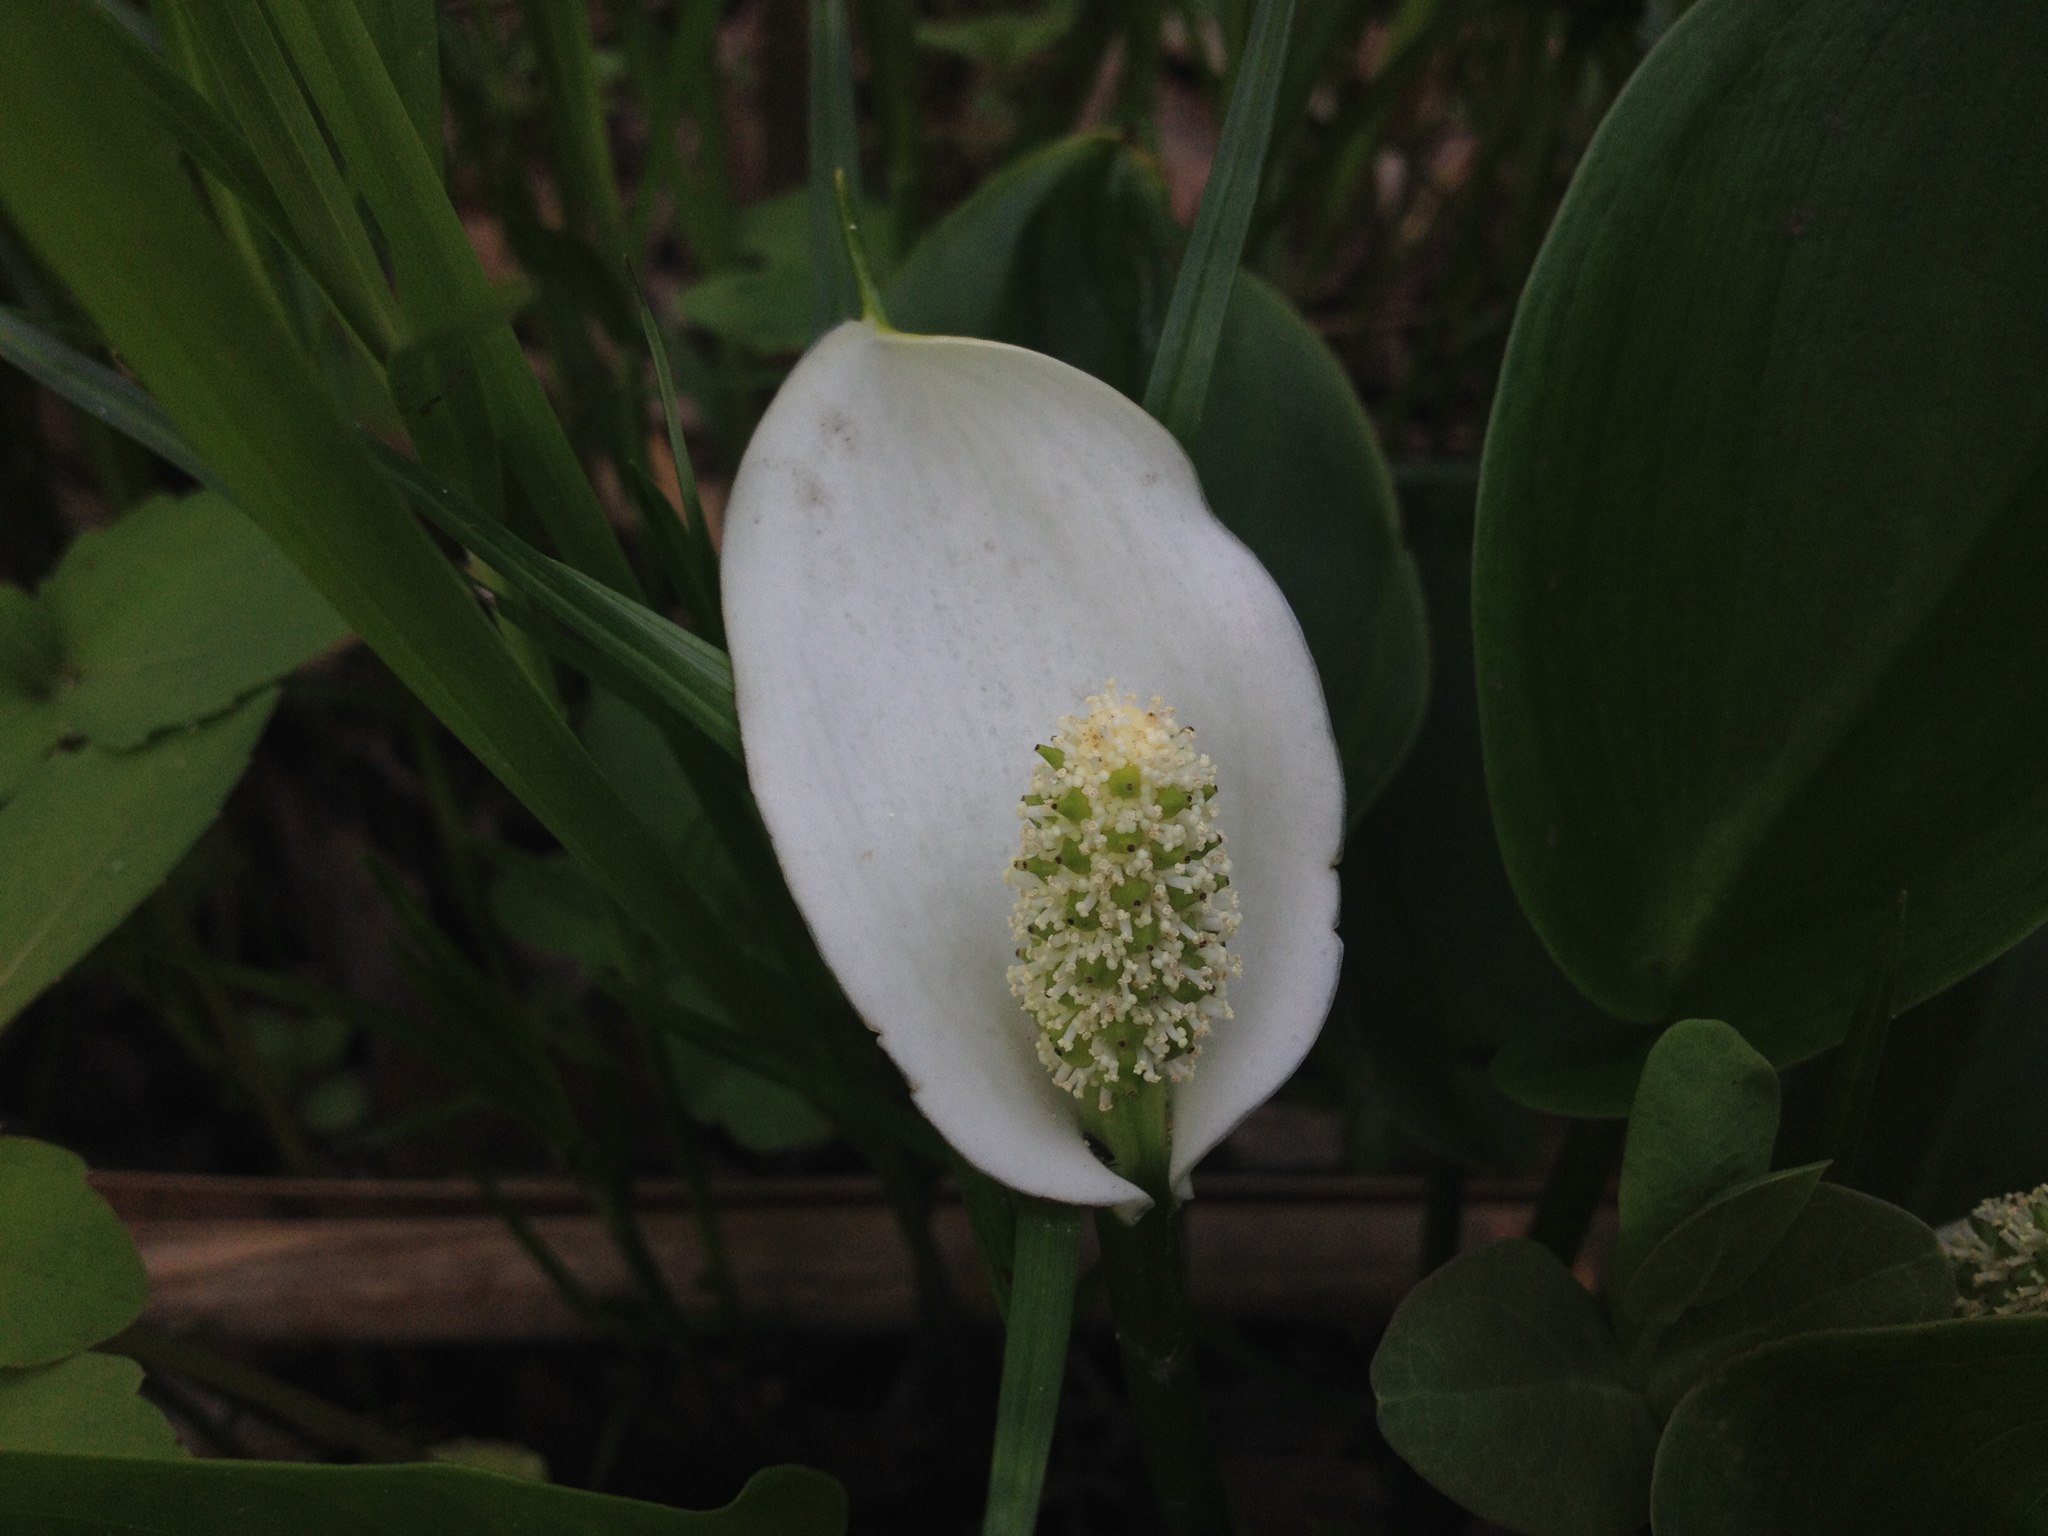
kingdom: Plantae
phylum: Tracheophyta
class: Liliopsida
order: Alismatales
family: Araceae
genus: Calla
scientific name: Calla palustris
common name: Bog arum
